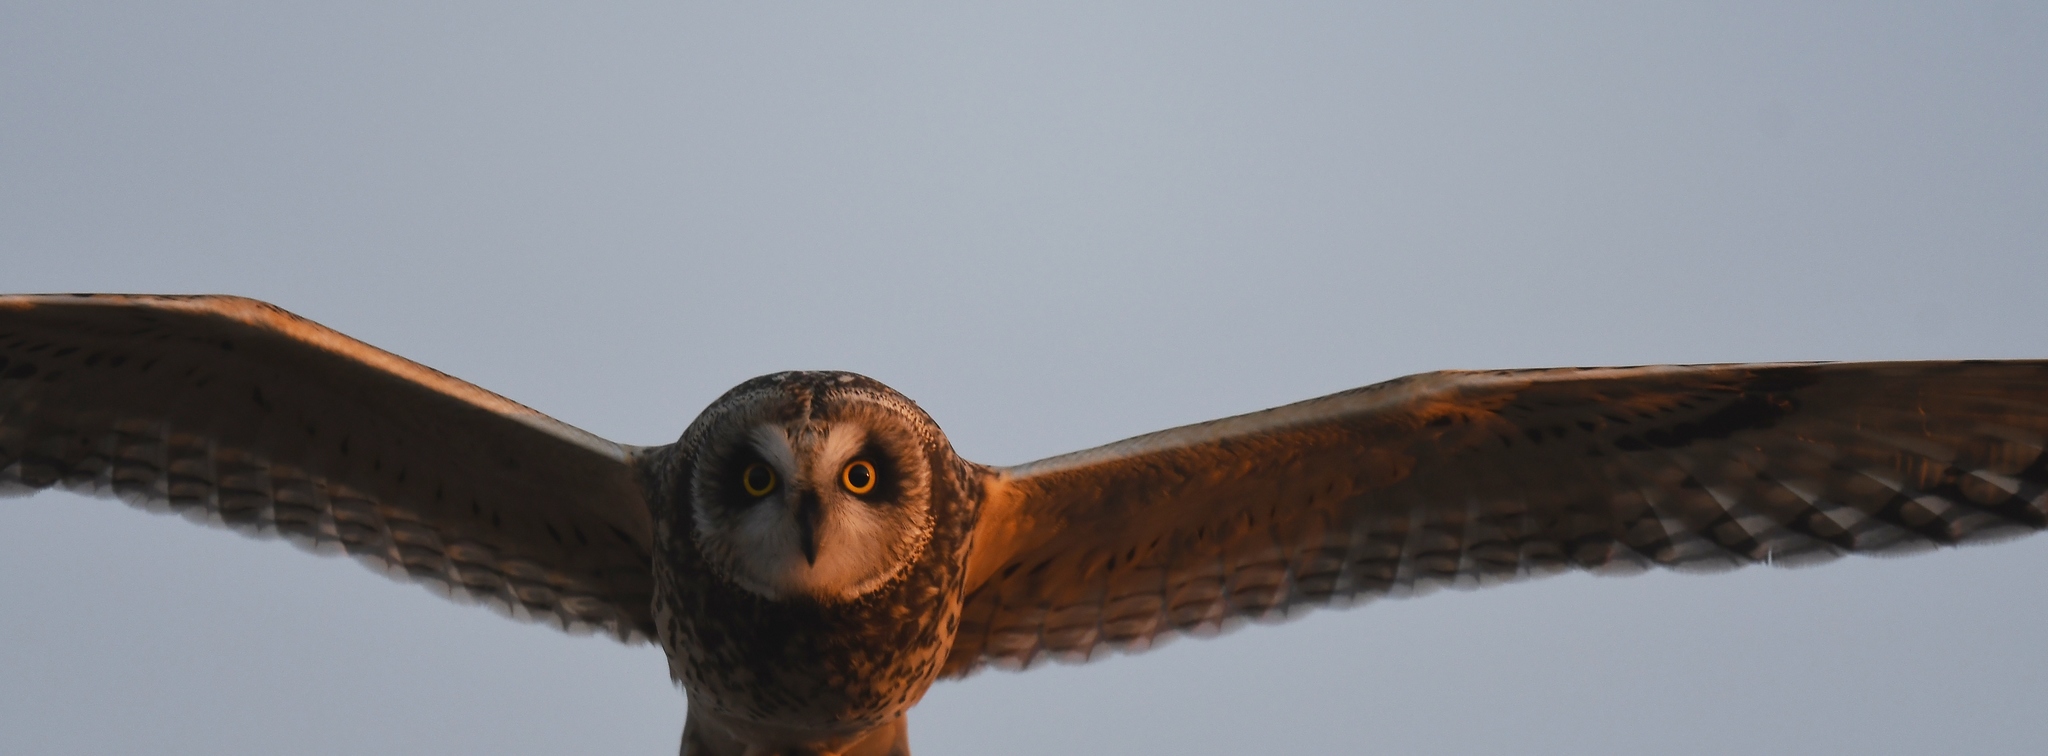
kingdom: Animalia
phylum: Chordata
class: Aves
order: Strigiformes
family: Strigidae
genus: Asio
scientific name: Asio flammeus
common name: Short-eared owl
